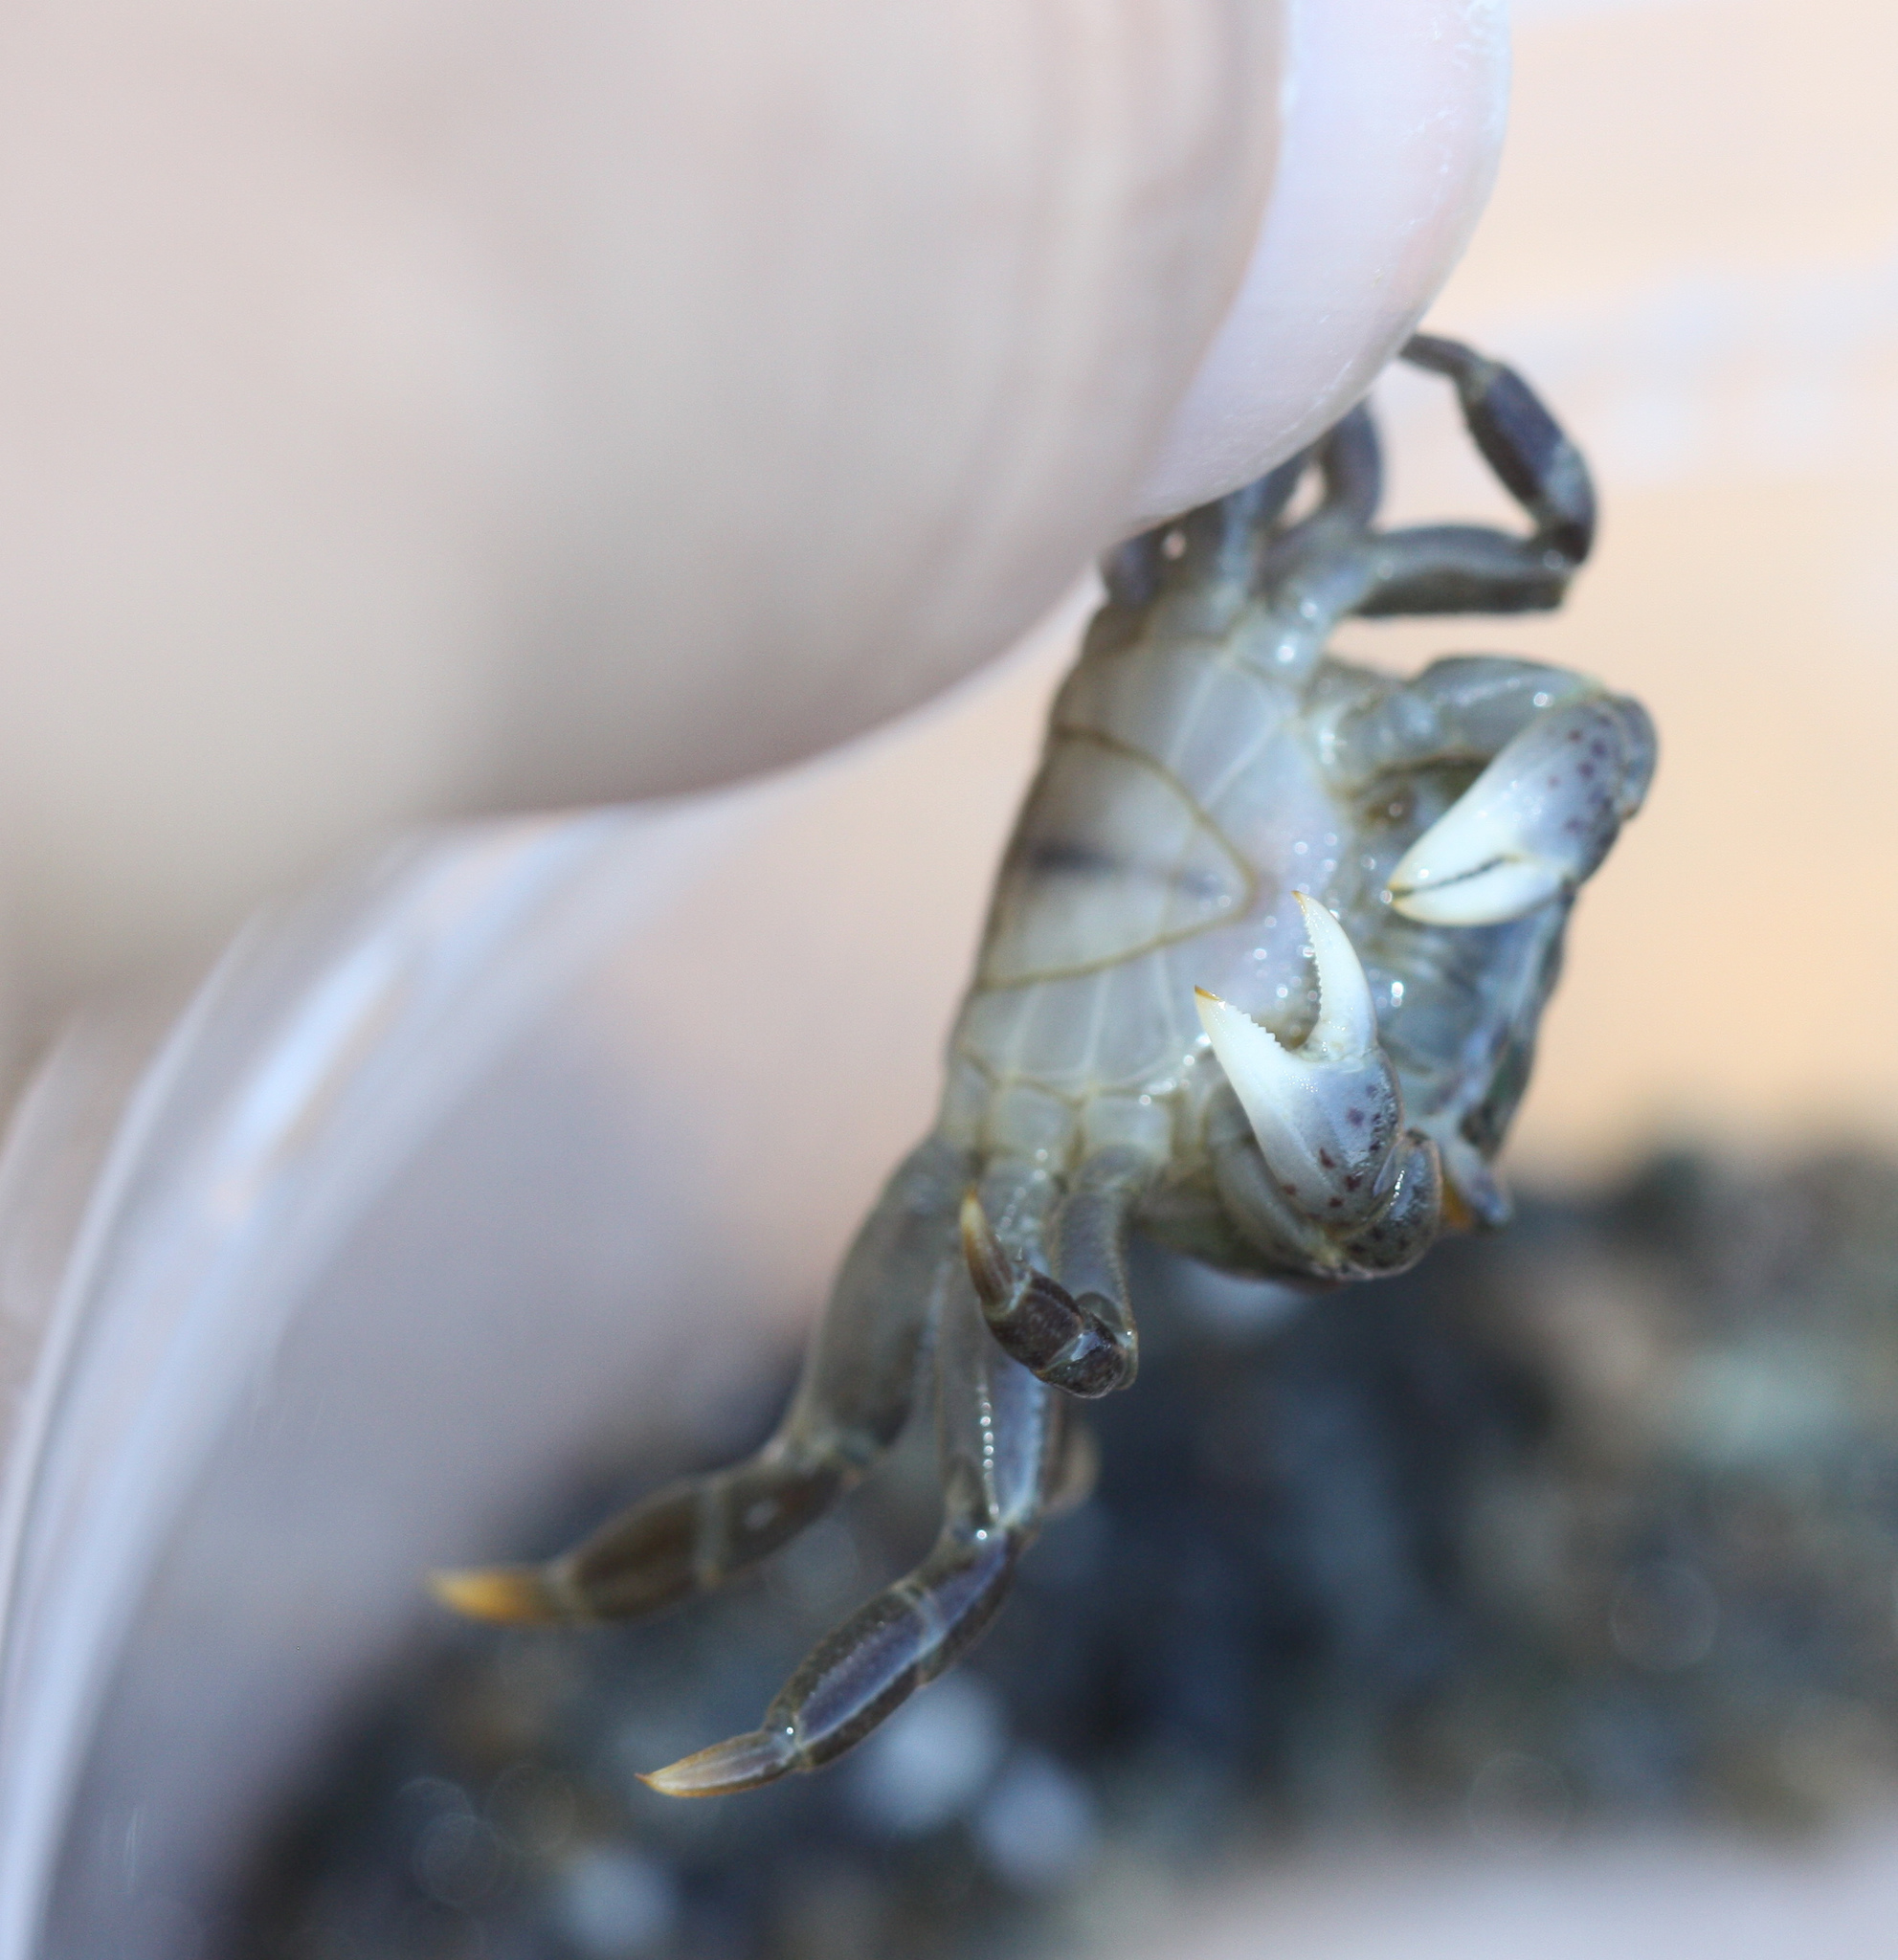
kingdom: Animalia
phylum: Arthropoda
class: Malacostraca
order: Decapoda
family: Varunidae
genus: Hemigrapsus
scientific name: Hemigrapsus nudus
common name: Purple shore crab
